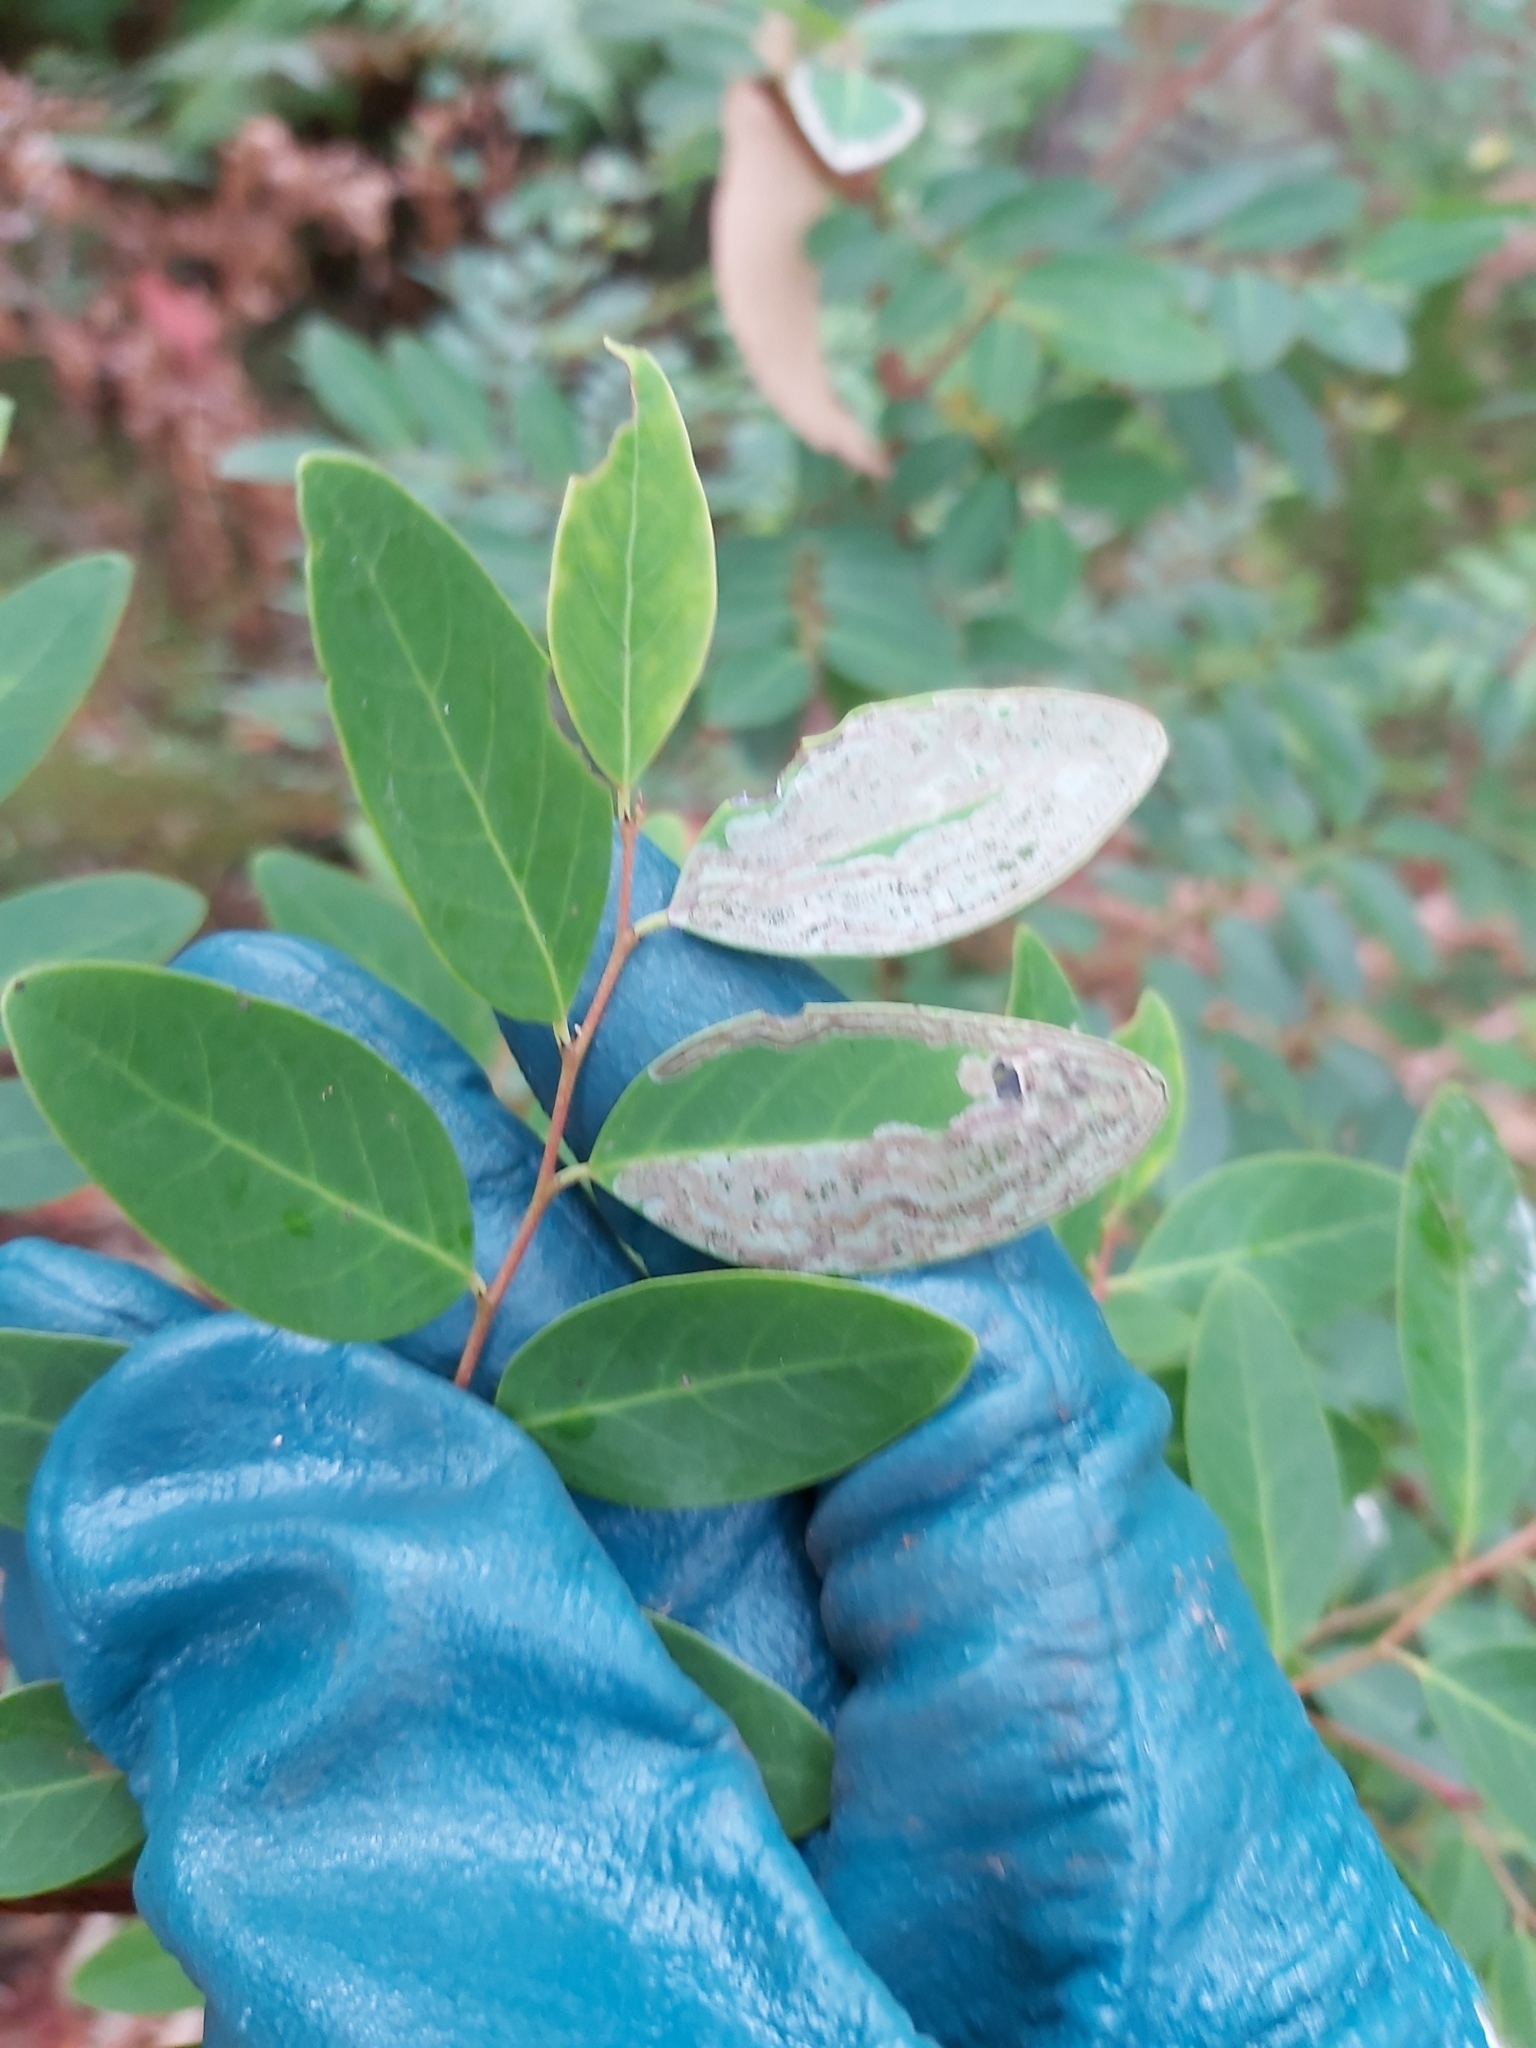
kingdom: Animalia
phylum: Arthropoda
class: Insecta
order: Lepidoptera
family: Gracillariidae
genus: Phyllocnistis
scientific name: Phyllocnistis diaugella
